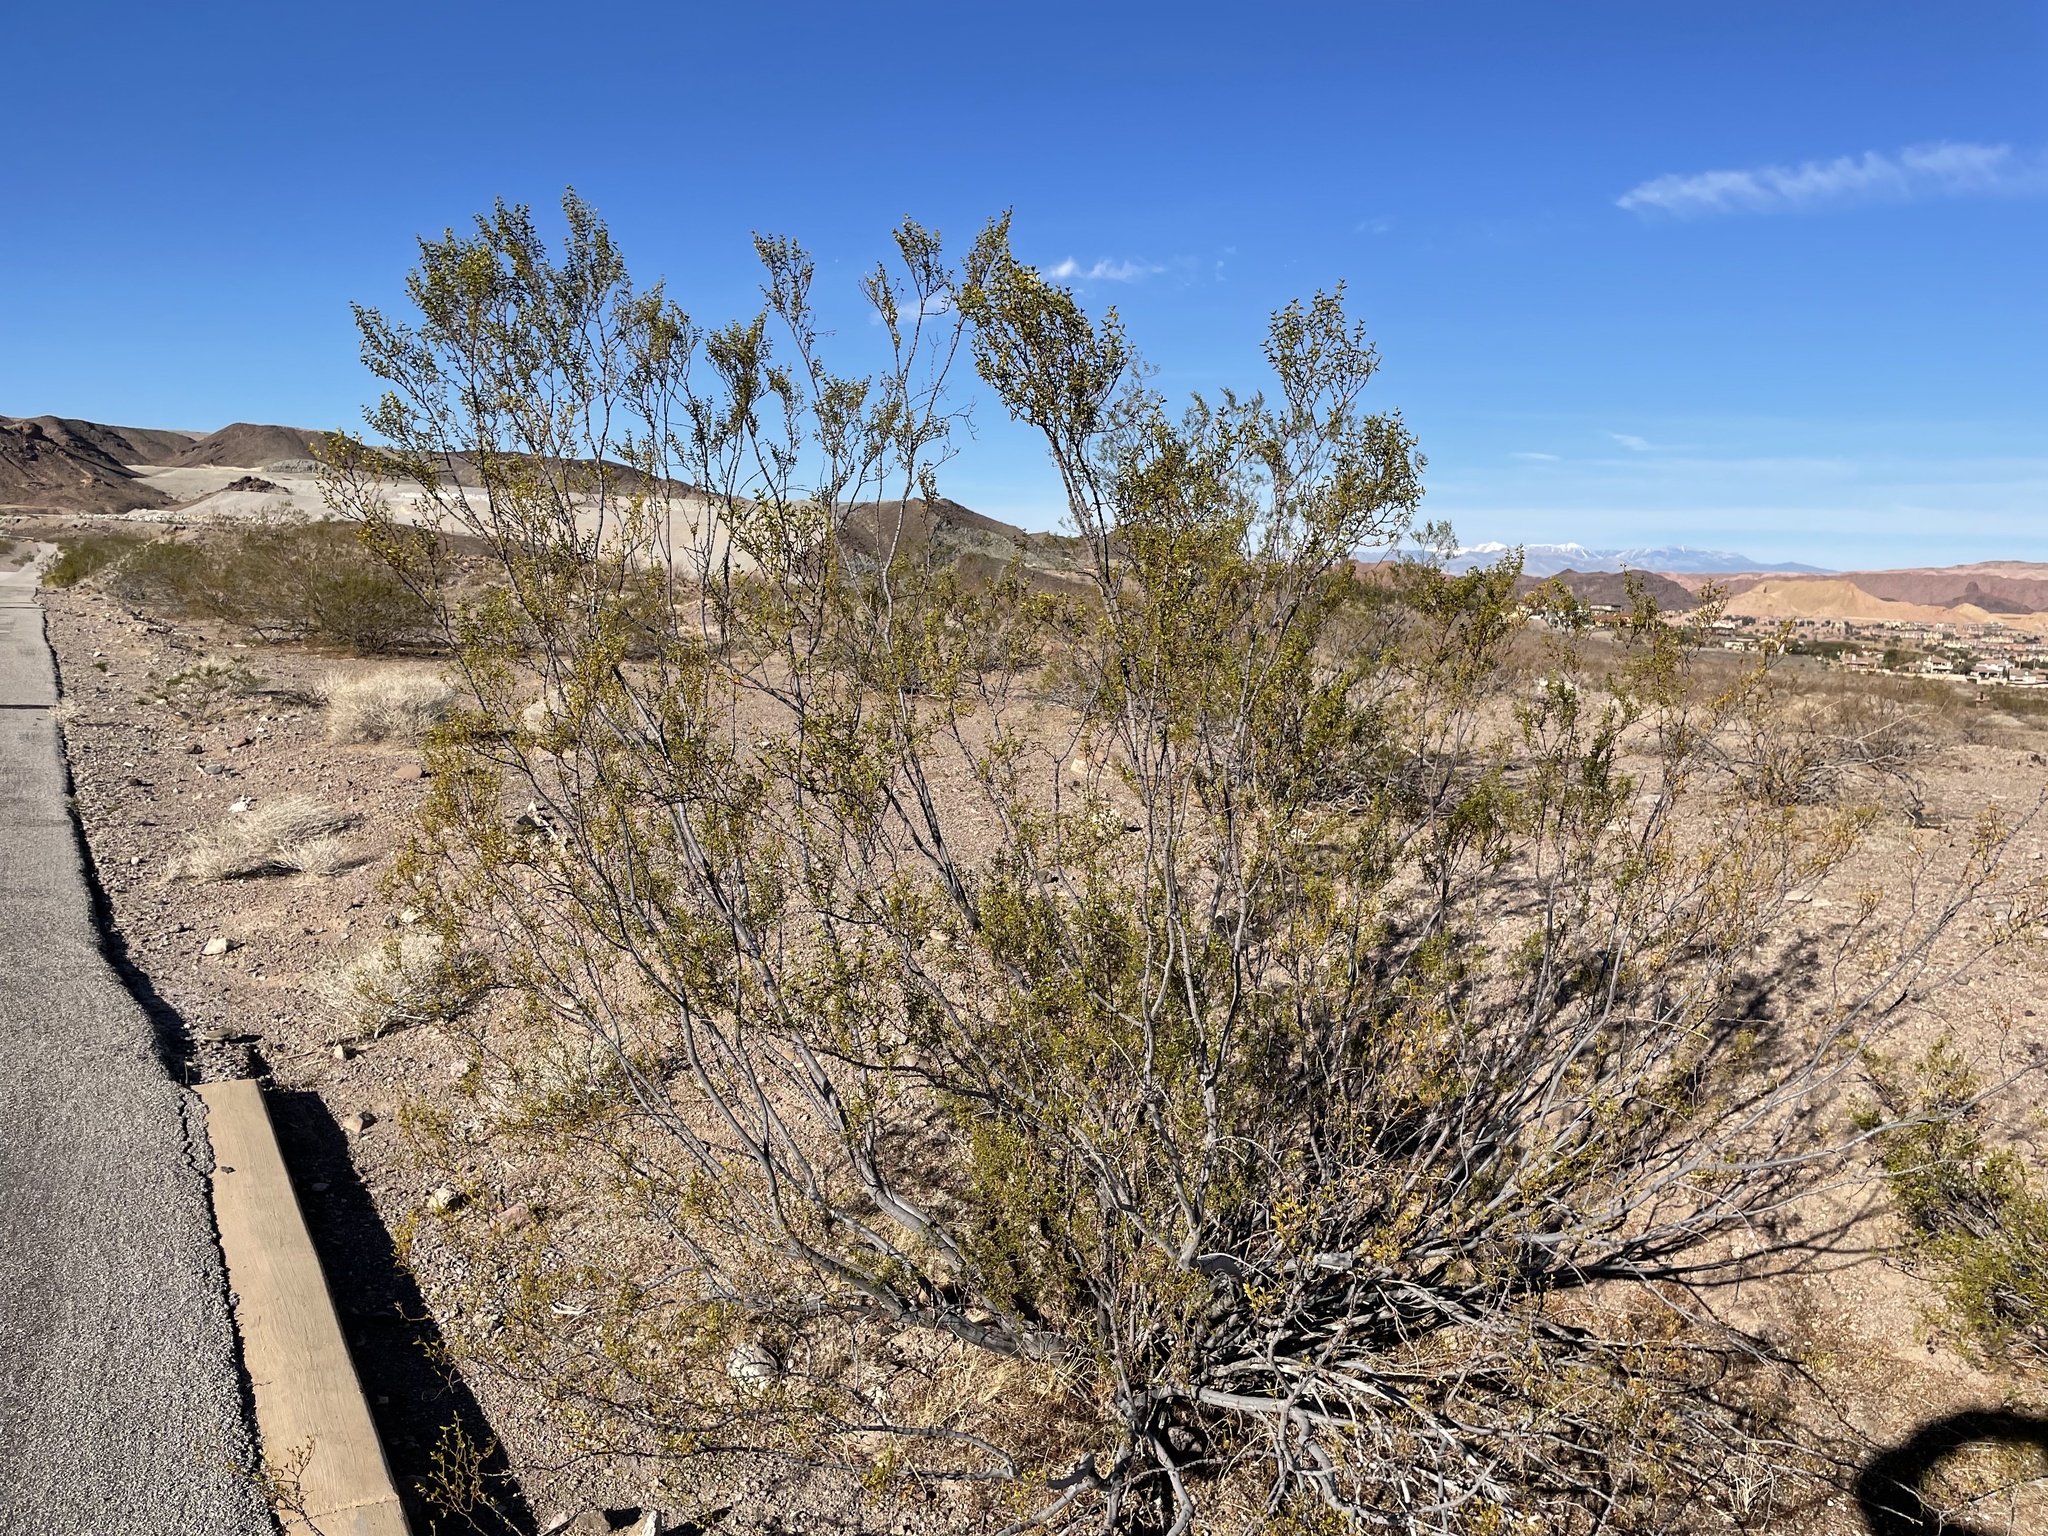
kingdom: Plantae
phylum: Tracheophyta
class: Magnoliopsida
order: Zygophyllales
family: Zygophyllaceae
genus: Larrea
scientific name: Larrea tridentata
